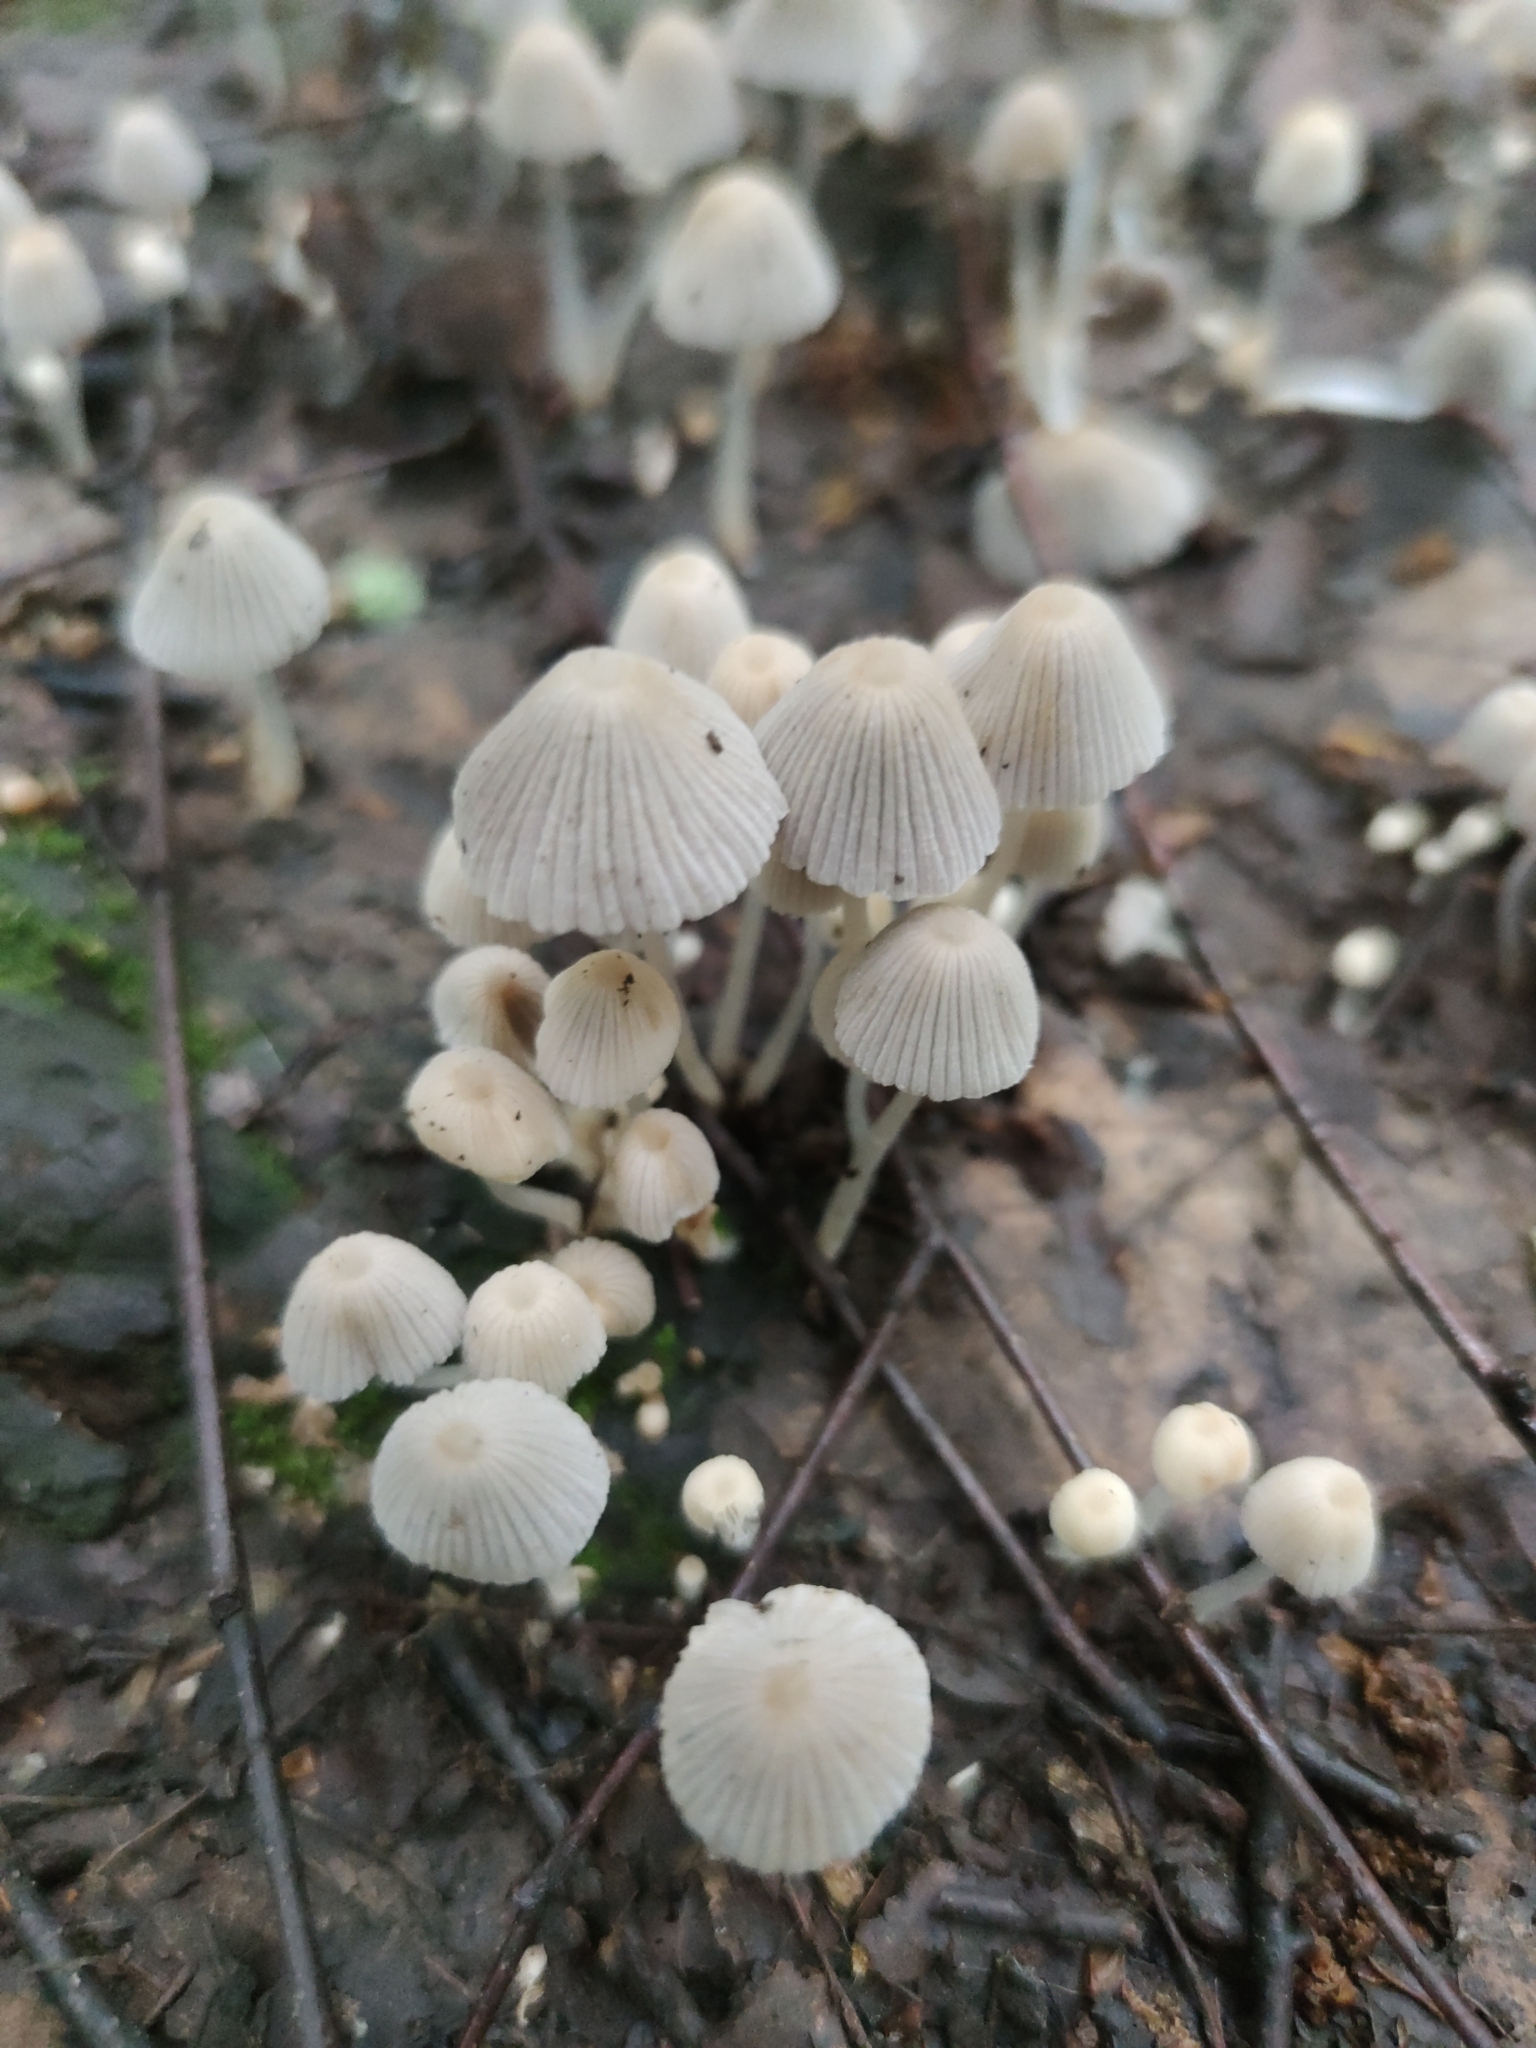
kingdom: Fungi
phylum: Basidiomycota
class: Agaricomycetes
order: Agaricales
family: Psathyrellaceae
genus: Coprinellus
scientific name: Coprinellus disseminatus
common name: Fairies' bonnets
